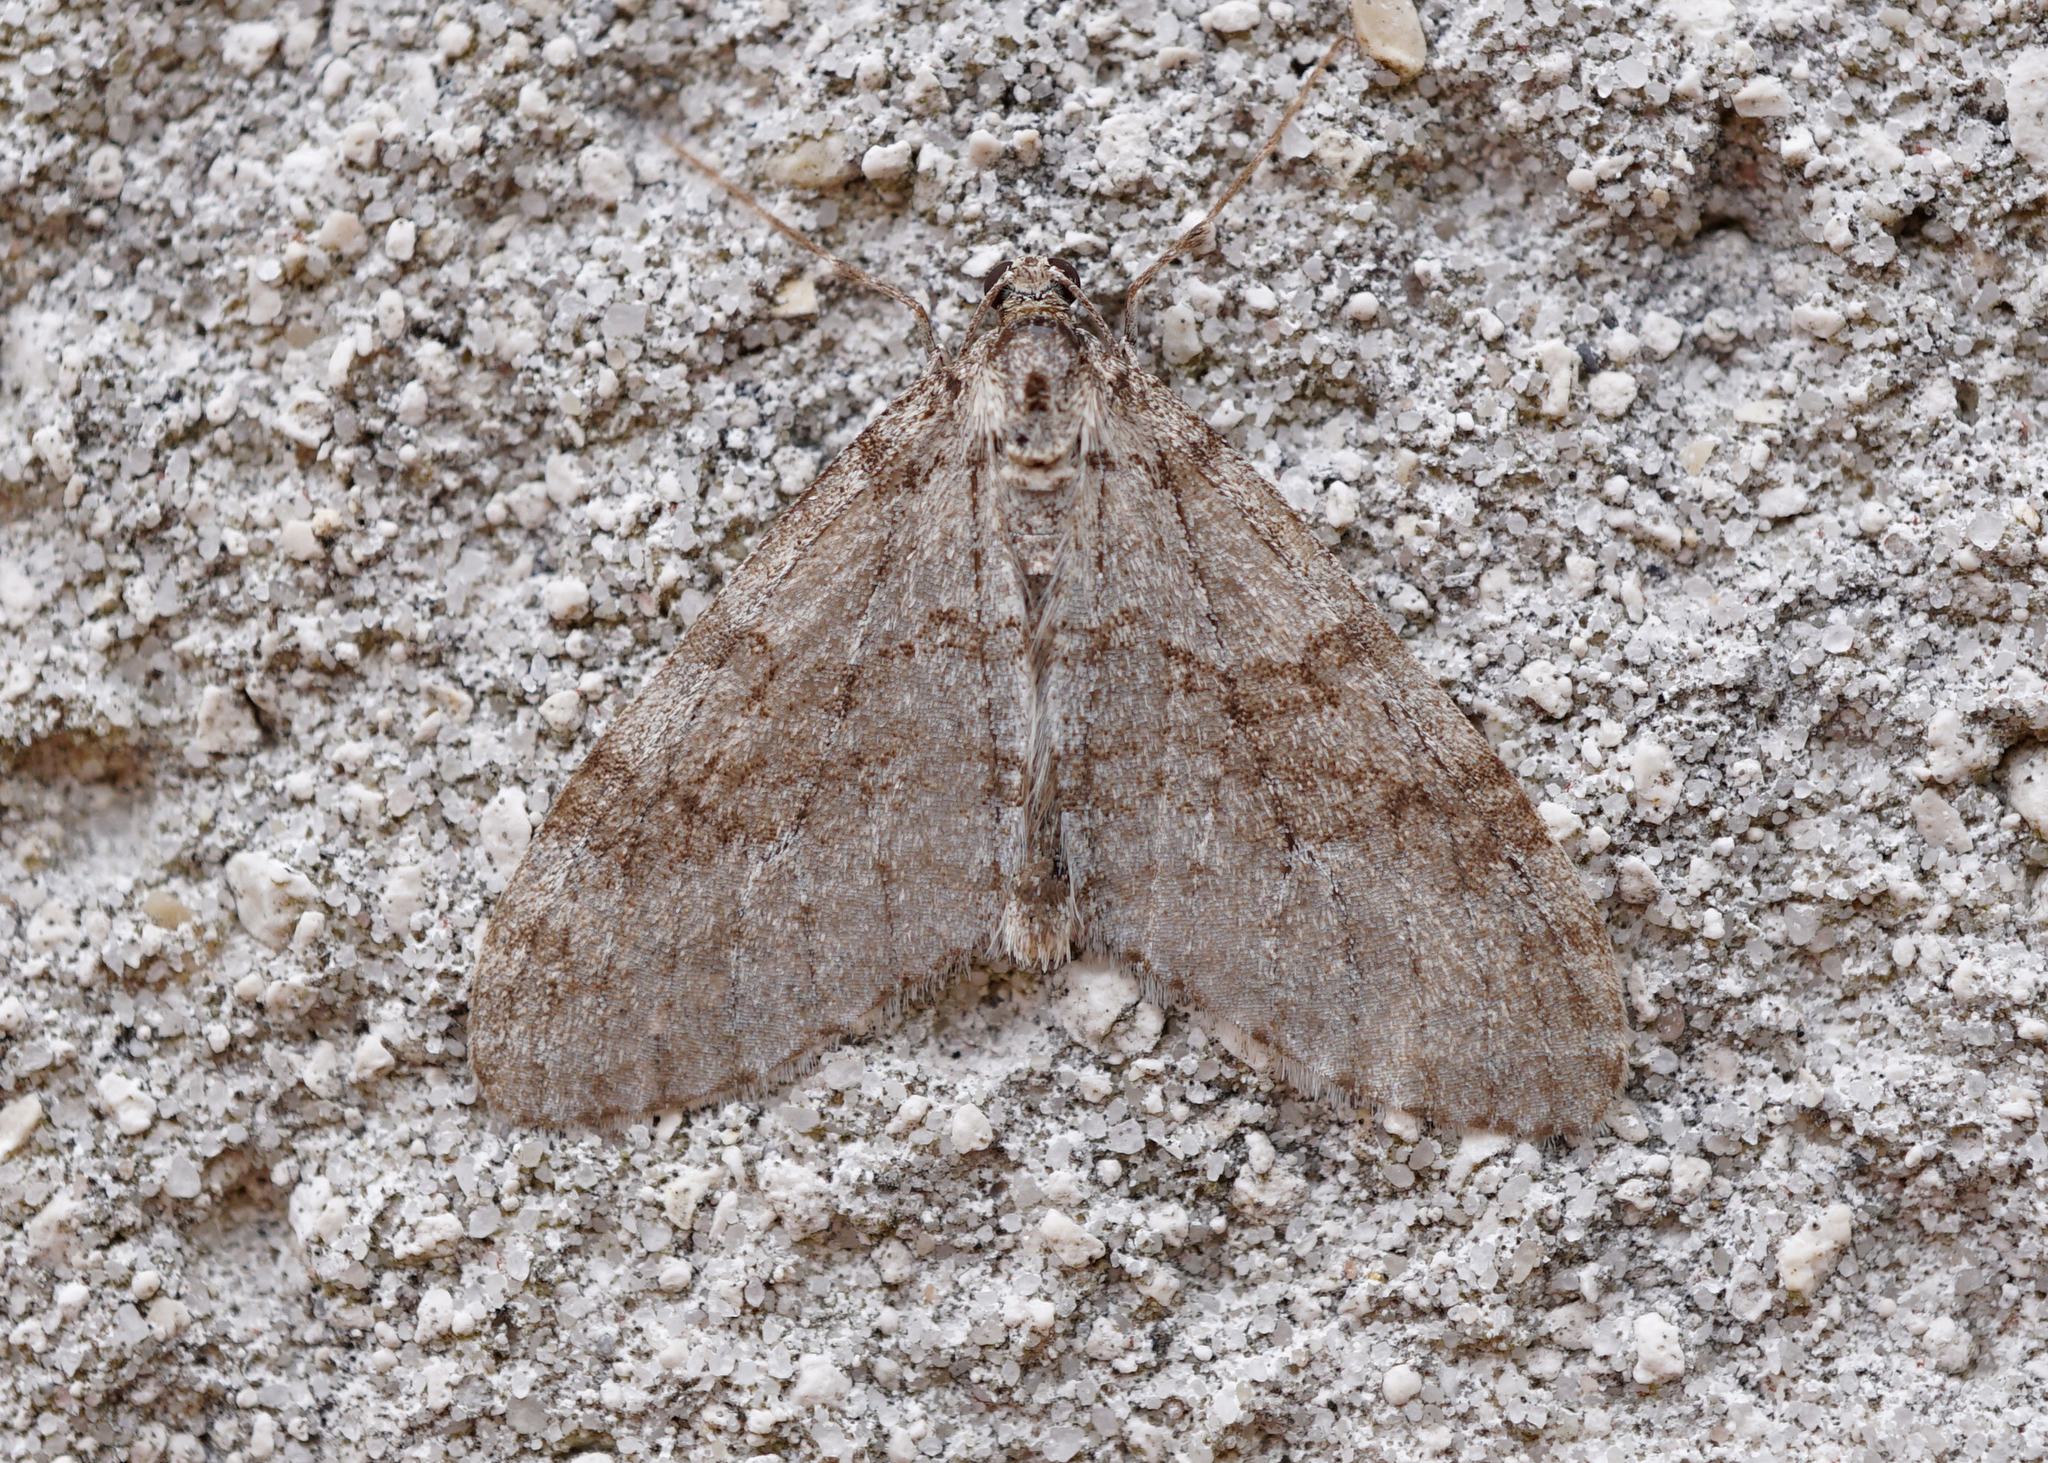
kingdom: Animalia
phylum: Arthropoda
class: Insecta
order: Lepidoptera
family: Geometridae
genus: Trichopteryx
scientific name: Trichopteryx carpinata
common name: Early tooth-striped
